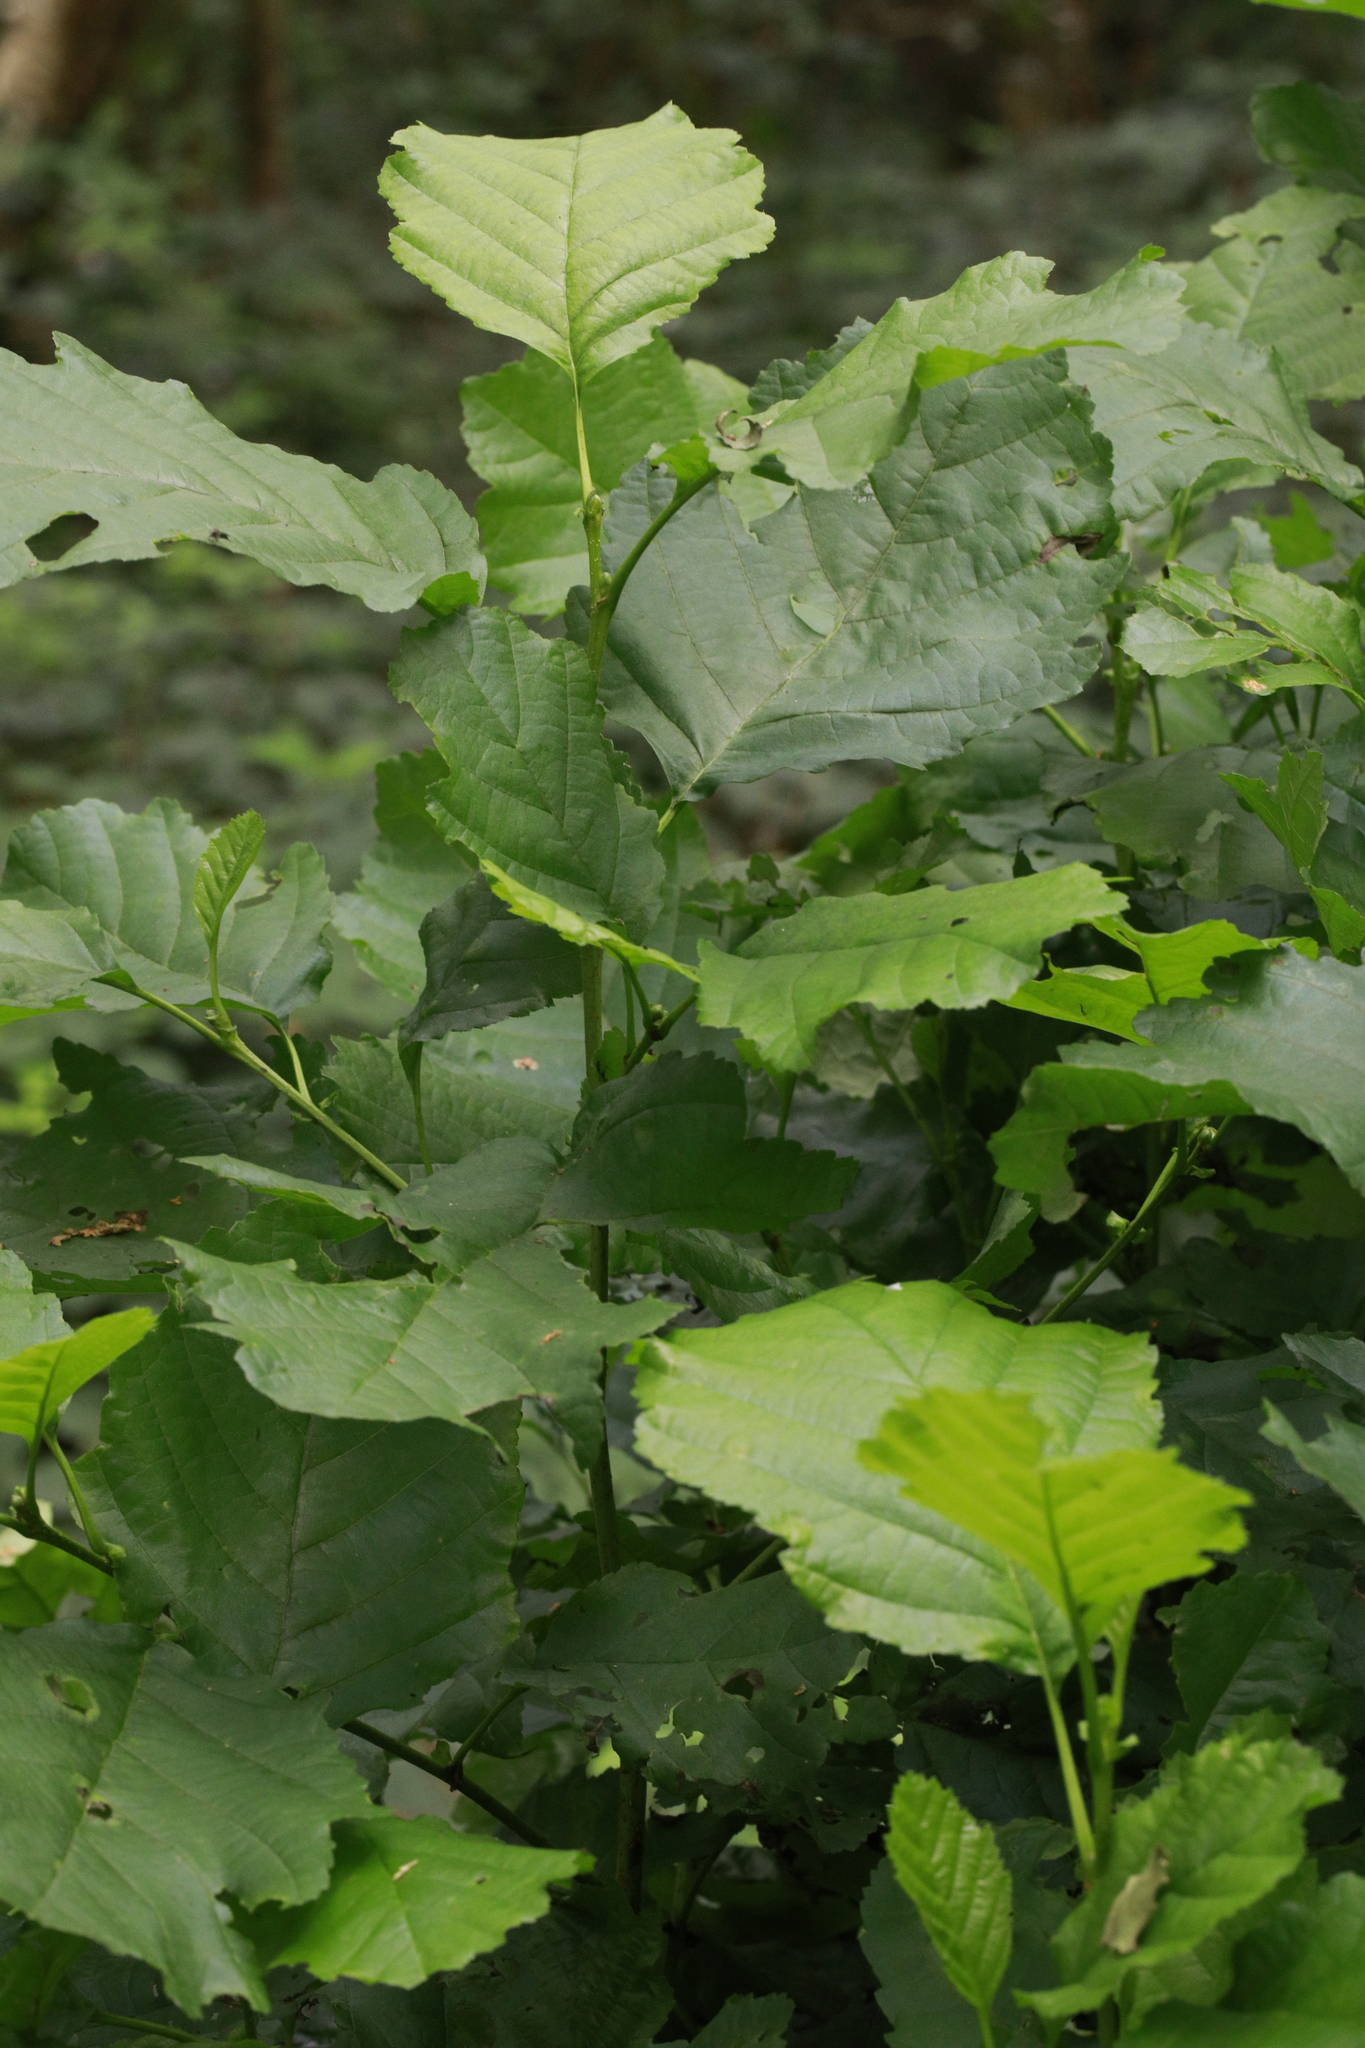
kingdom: Plantae
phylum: Tracheophyta
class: Magnoliopsida
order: Fagales
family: Betulaceae
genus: Alnus
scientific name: Alnus glutinosa
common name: Black alder
